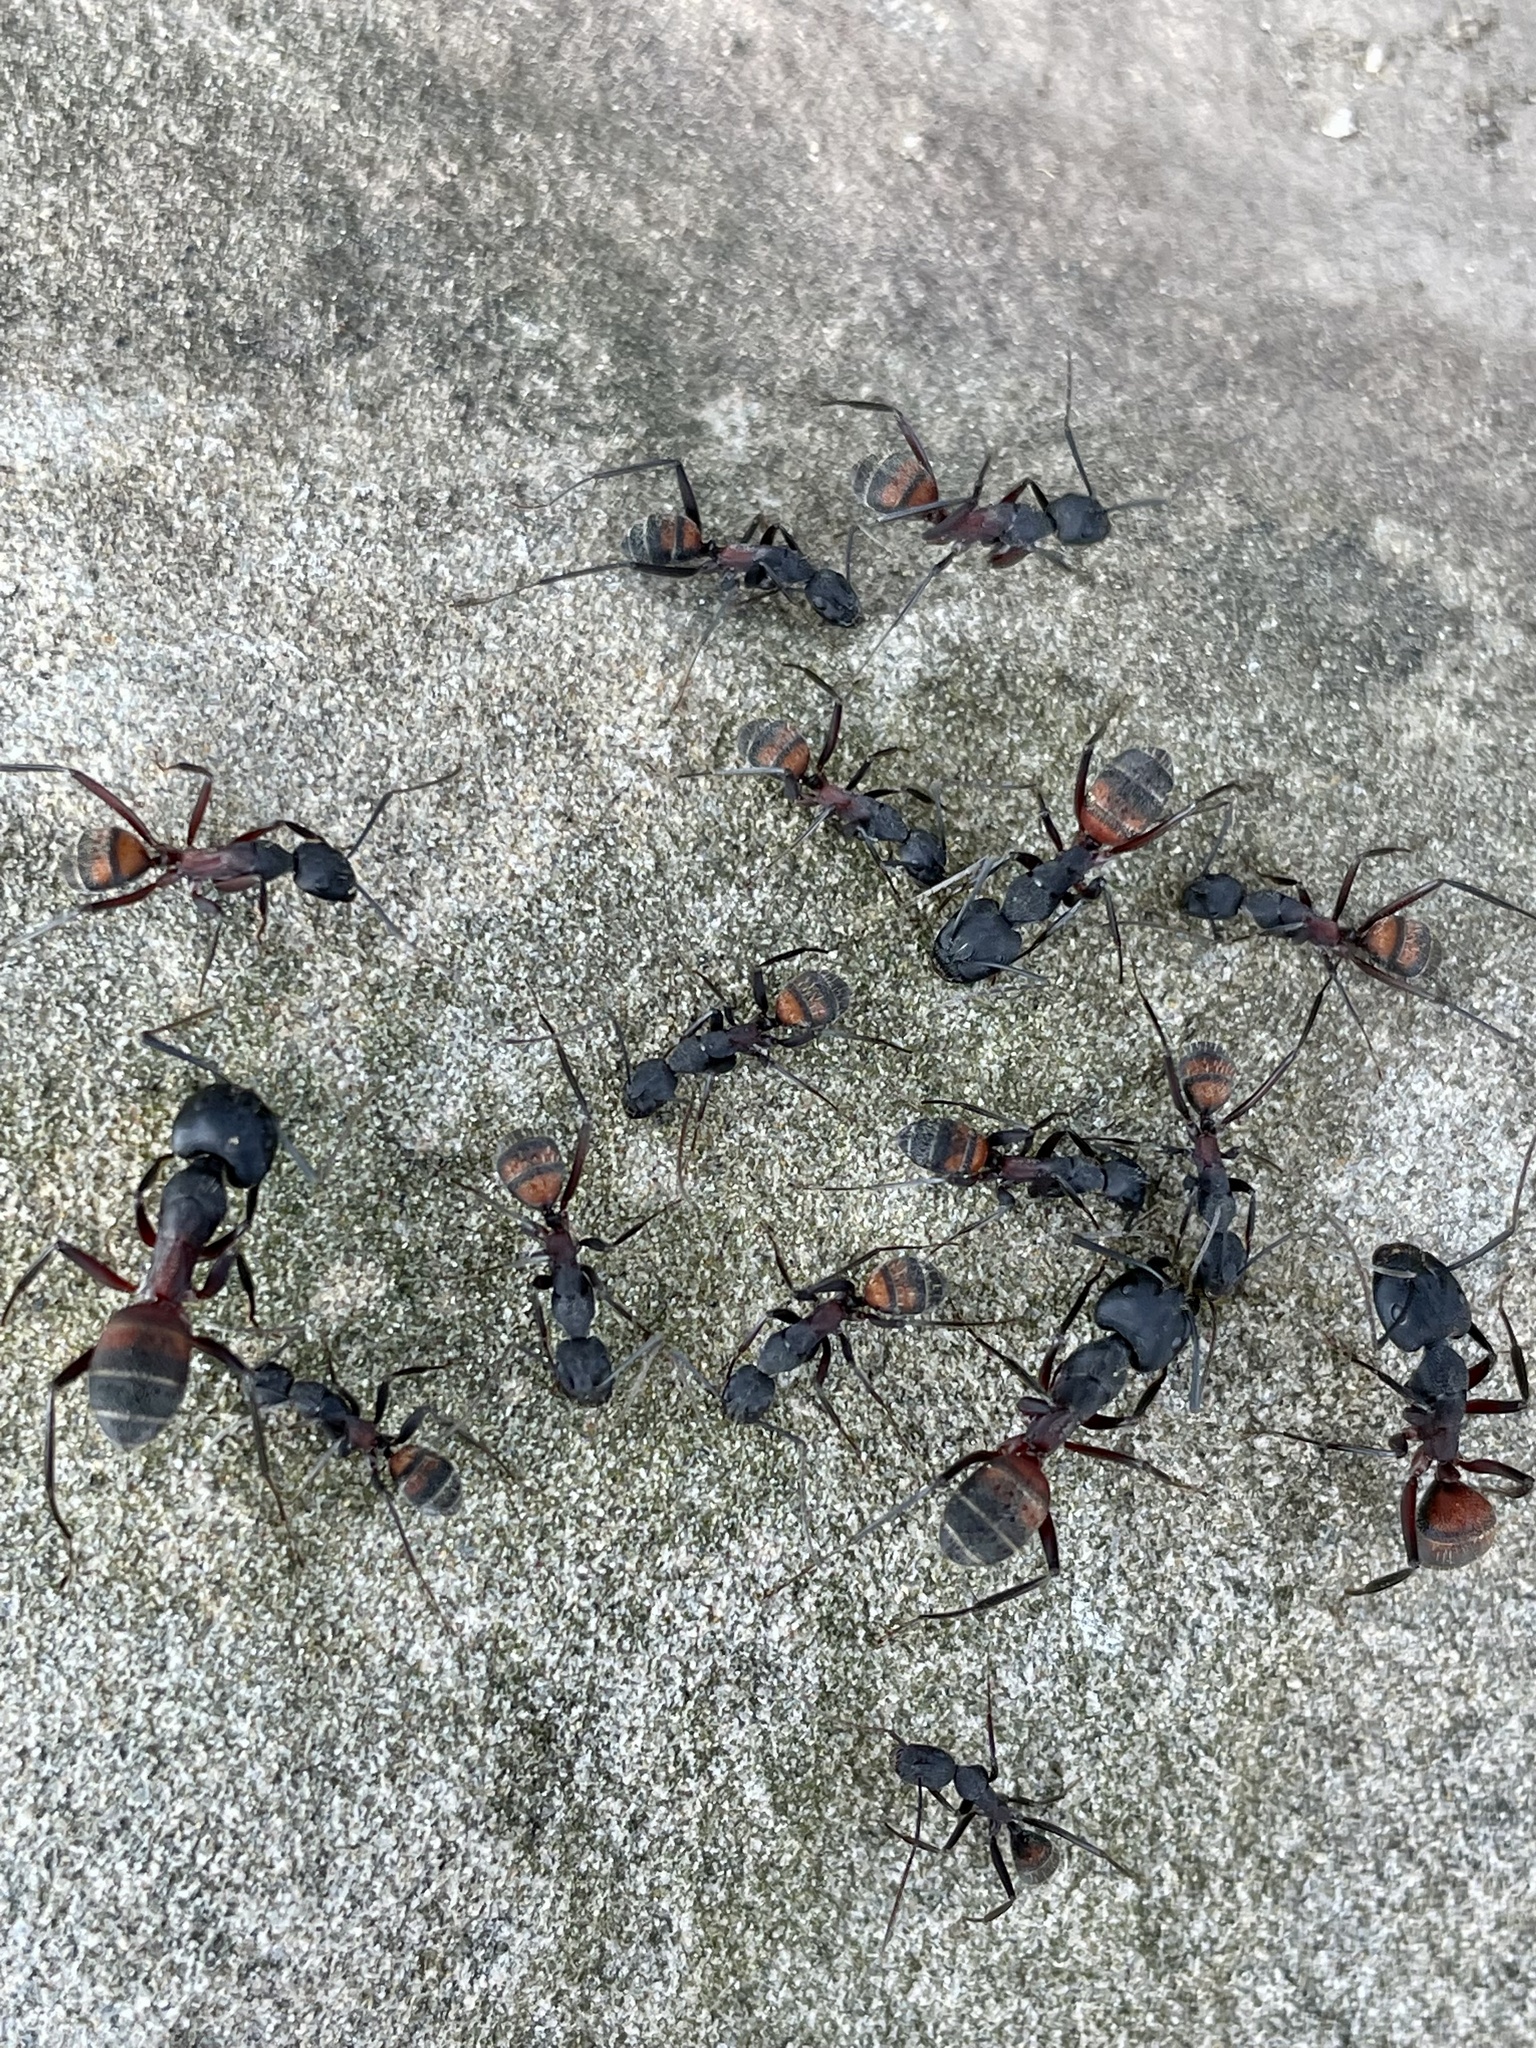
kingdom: Animalia
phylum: Arthropoda
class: Insecta
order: Hymenoptera
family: Formicidae
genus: Camponotus
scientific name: Camponotus cruentatus
